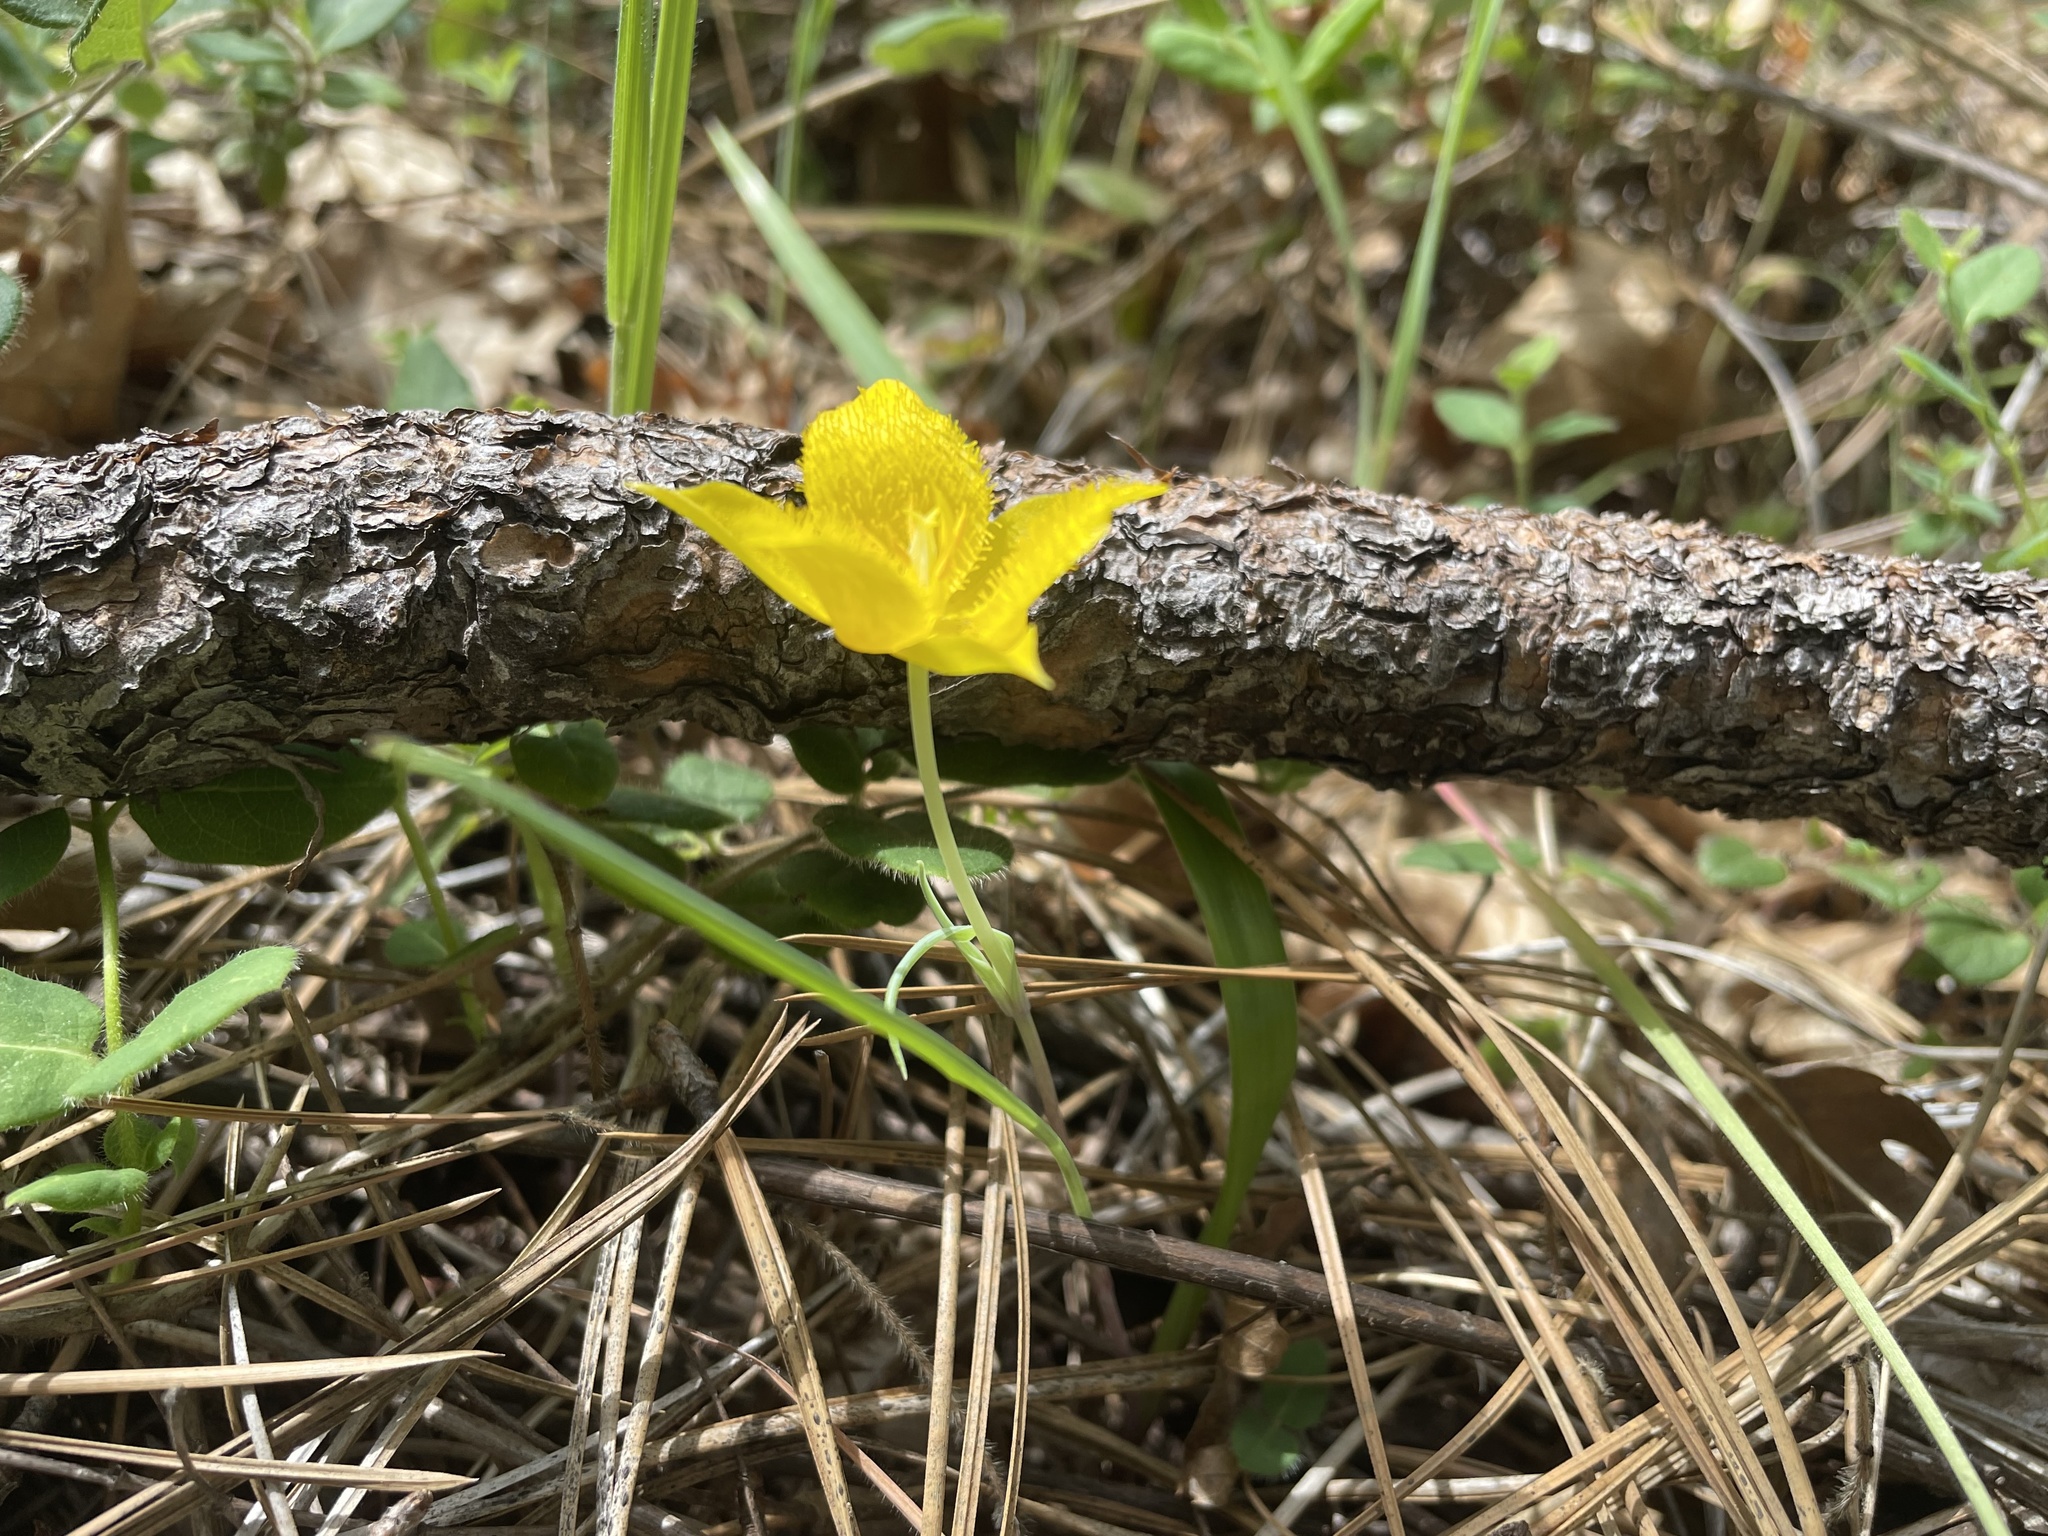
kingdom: Plantae
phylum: Tracheophyta
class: Liliopsida
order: Liliales
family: Liliaceae
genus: Calochortus
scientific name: Calochortus monophyllus
